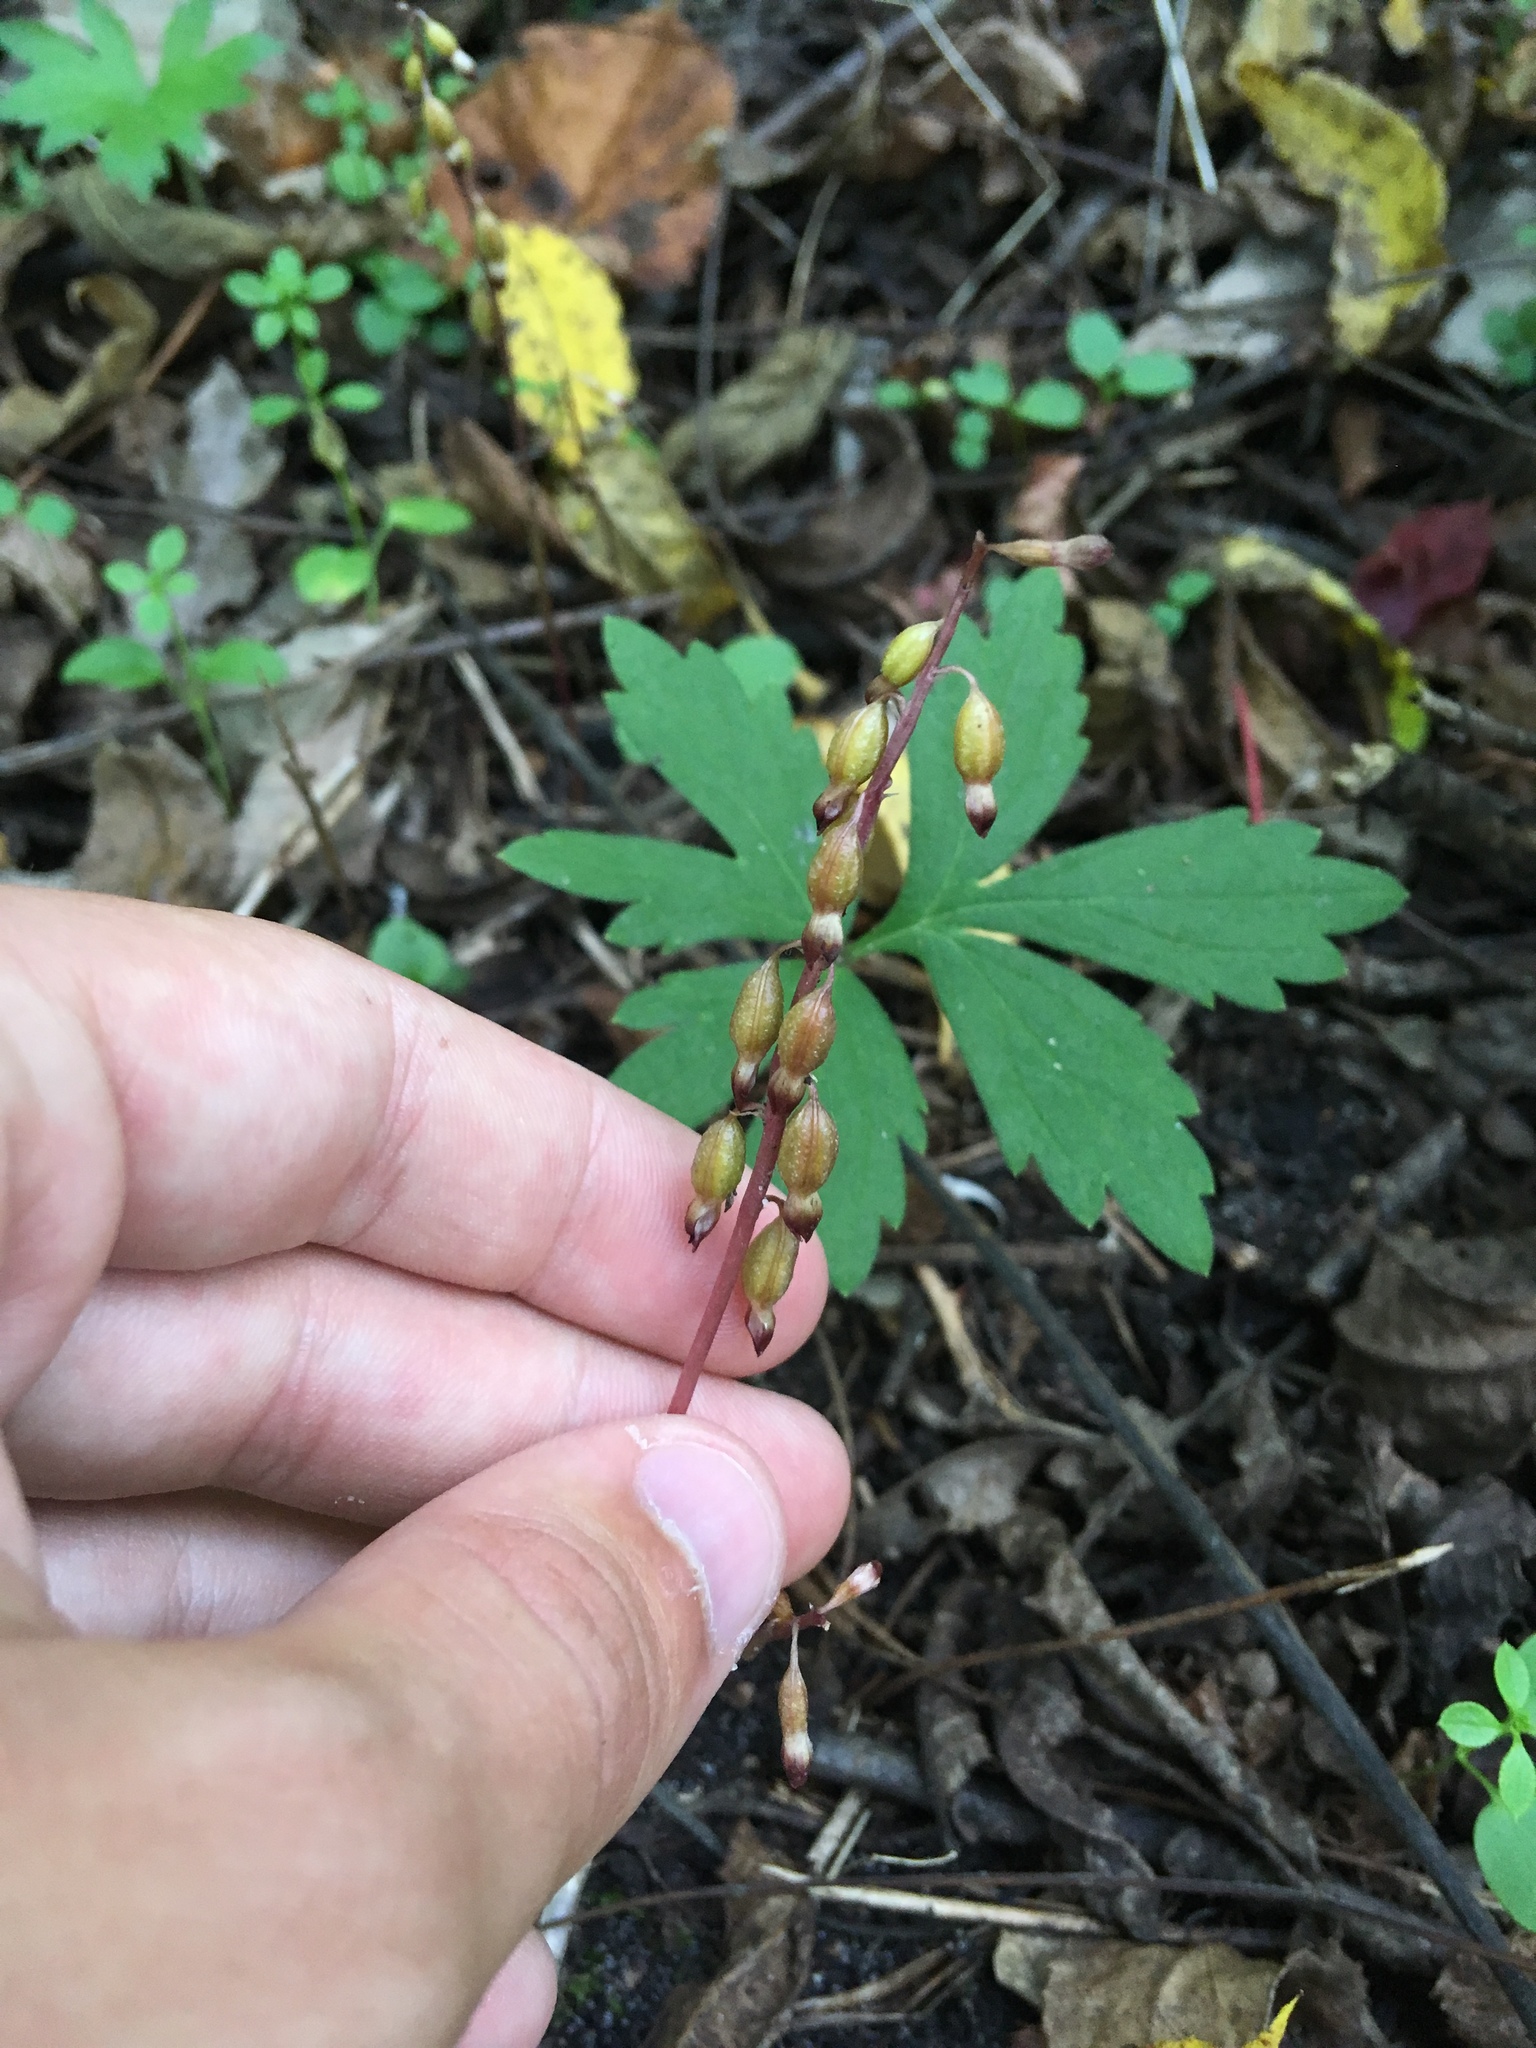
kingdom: Plantae
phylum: Tracheophyta
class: Liliopsida
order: Asparagales
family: Orchidaceae
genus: Corallorhiza
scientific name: Corallorhiza odontorhiza
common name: Autumn coralroot
